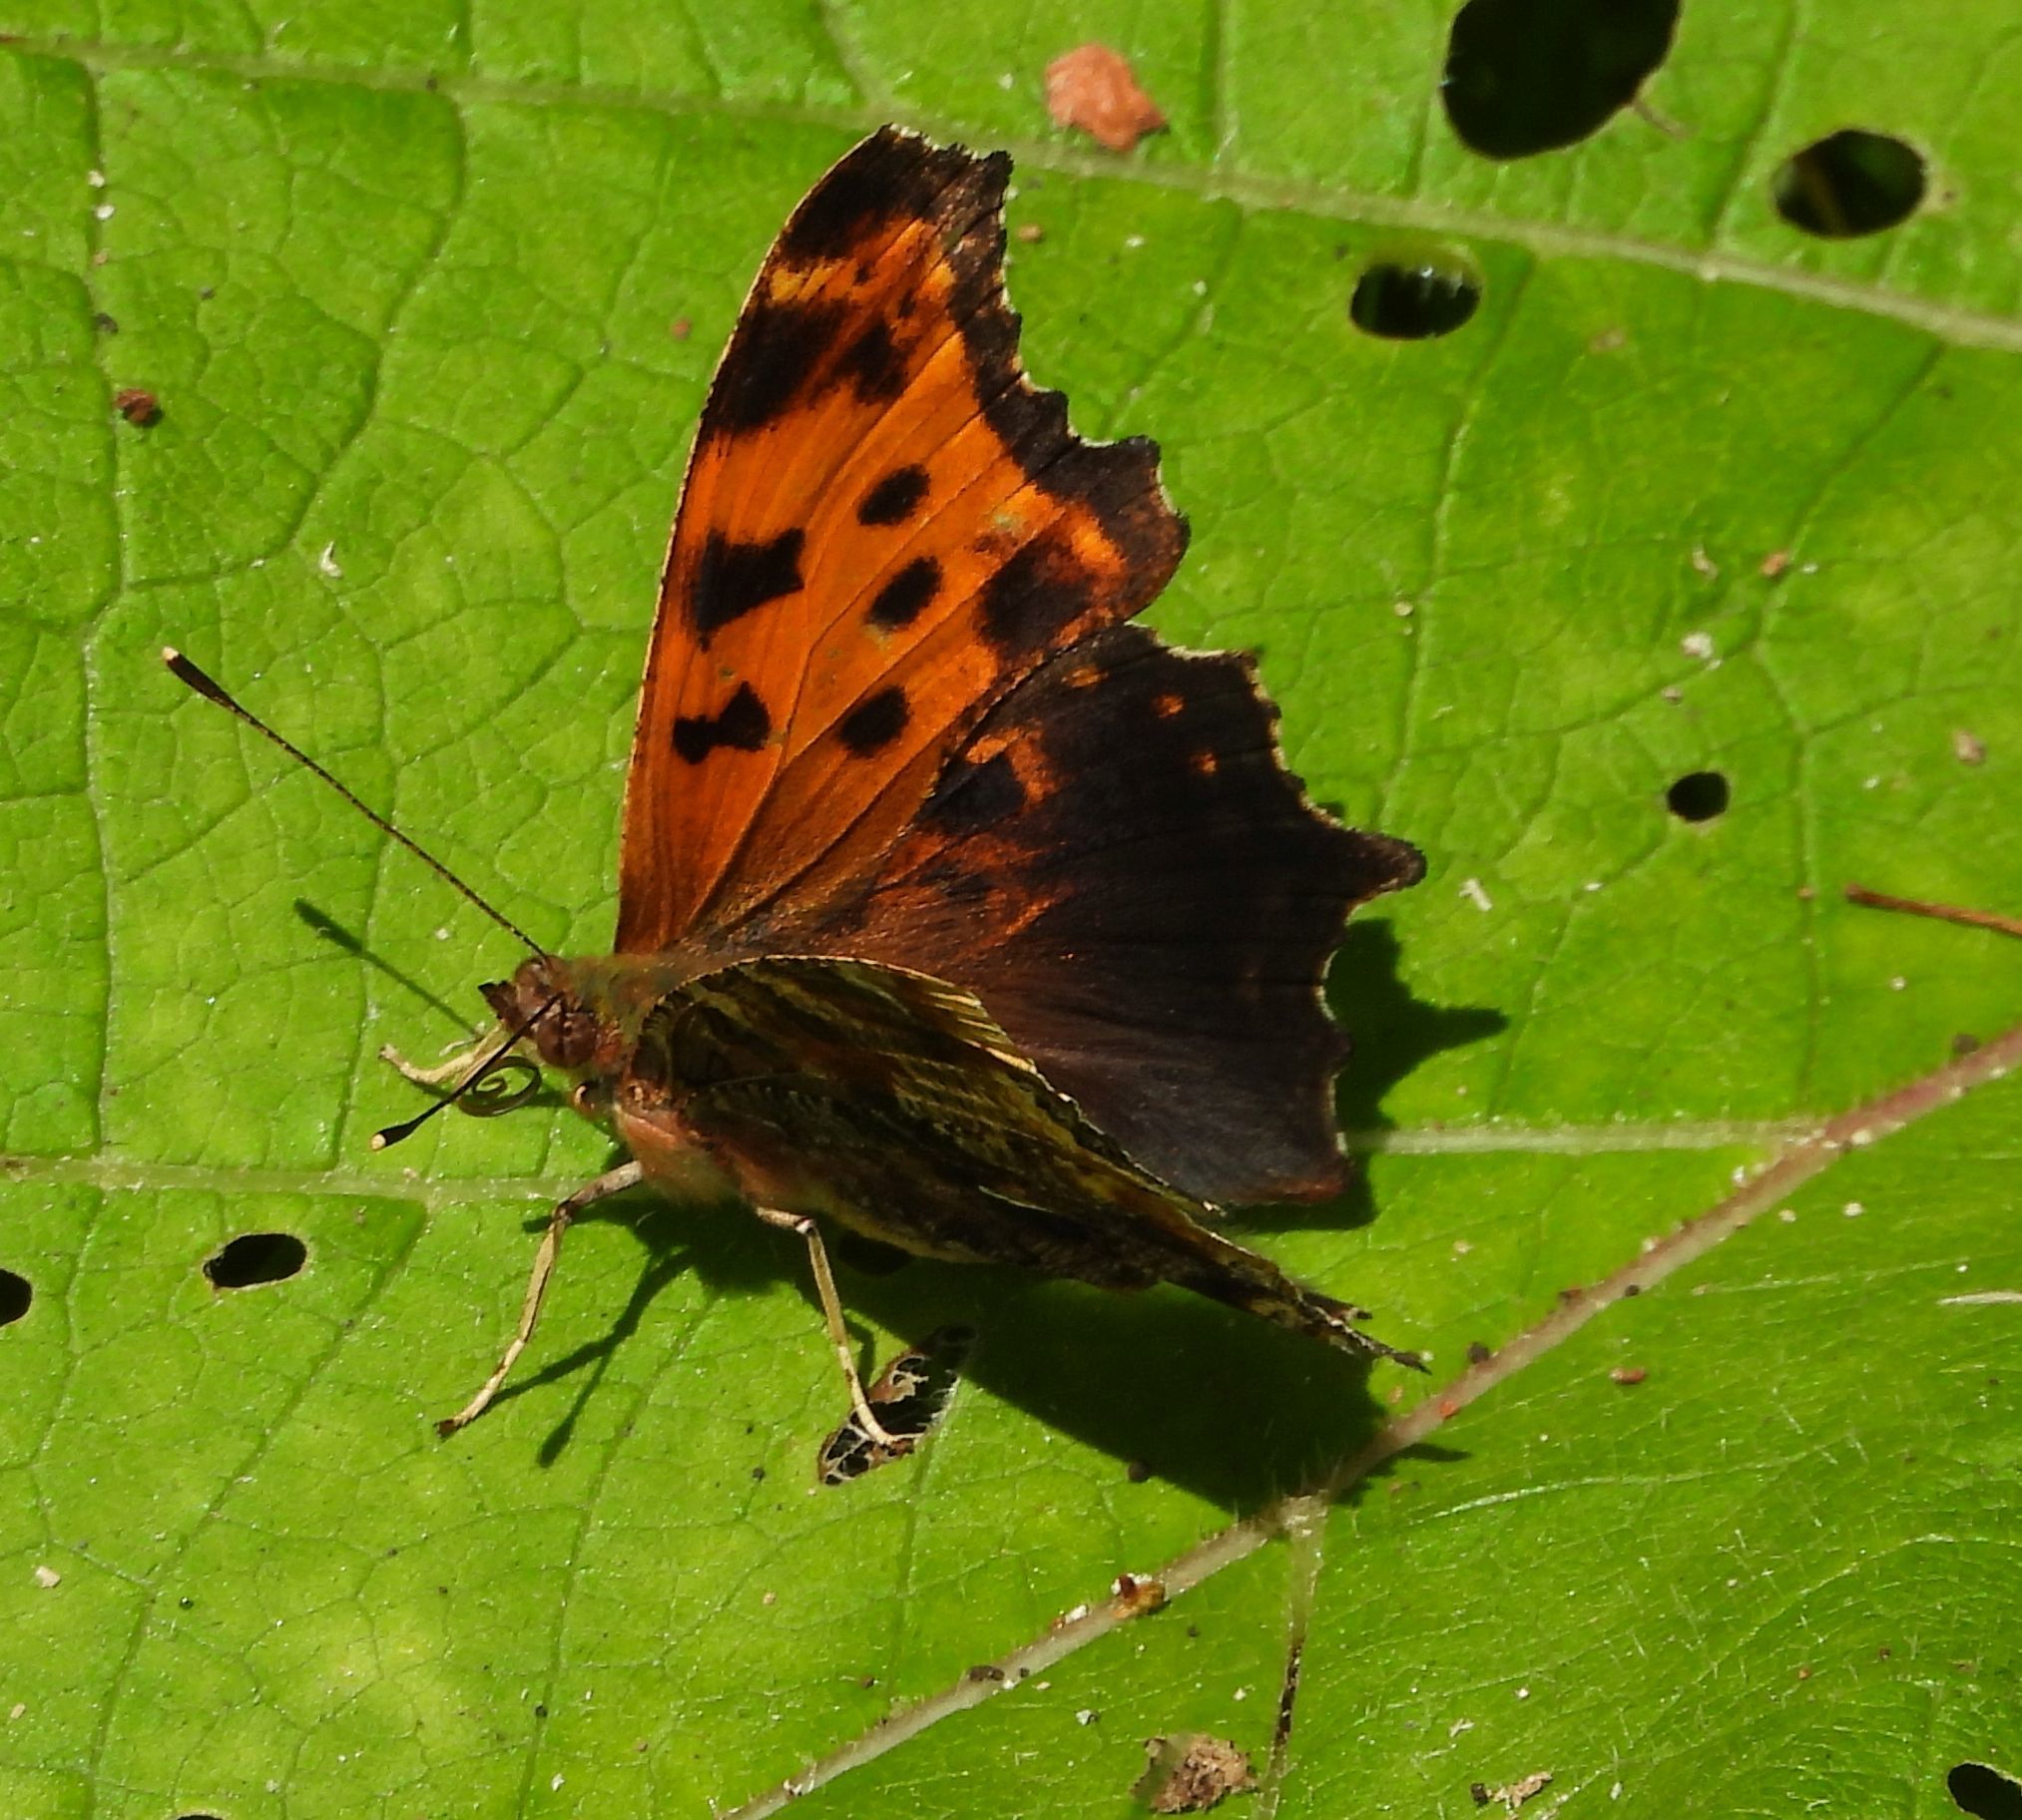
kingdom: Animalia
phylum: Arthropoda
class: Insecta
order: Lepidoptera
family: Nymphalidae
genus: Polygonia
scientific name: Polygonia comma
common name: Eastern comma
